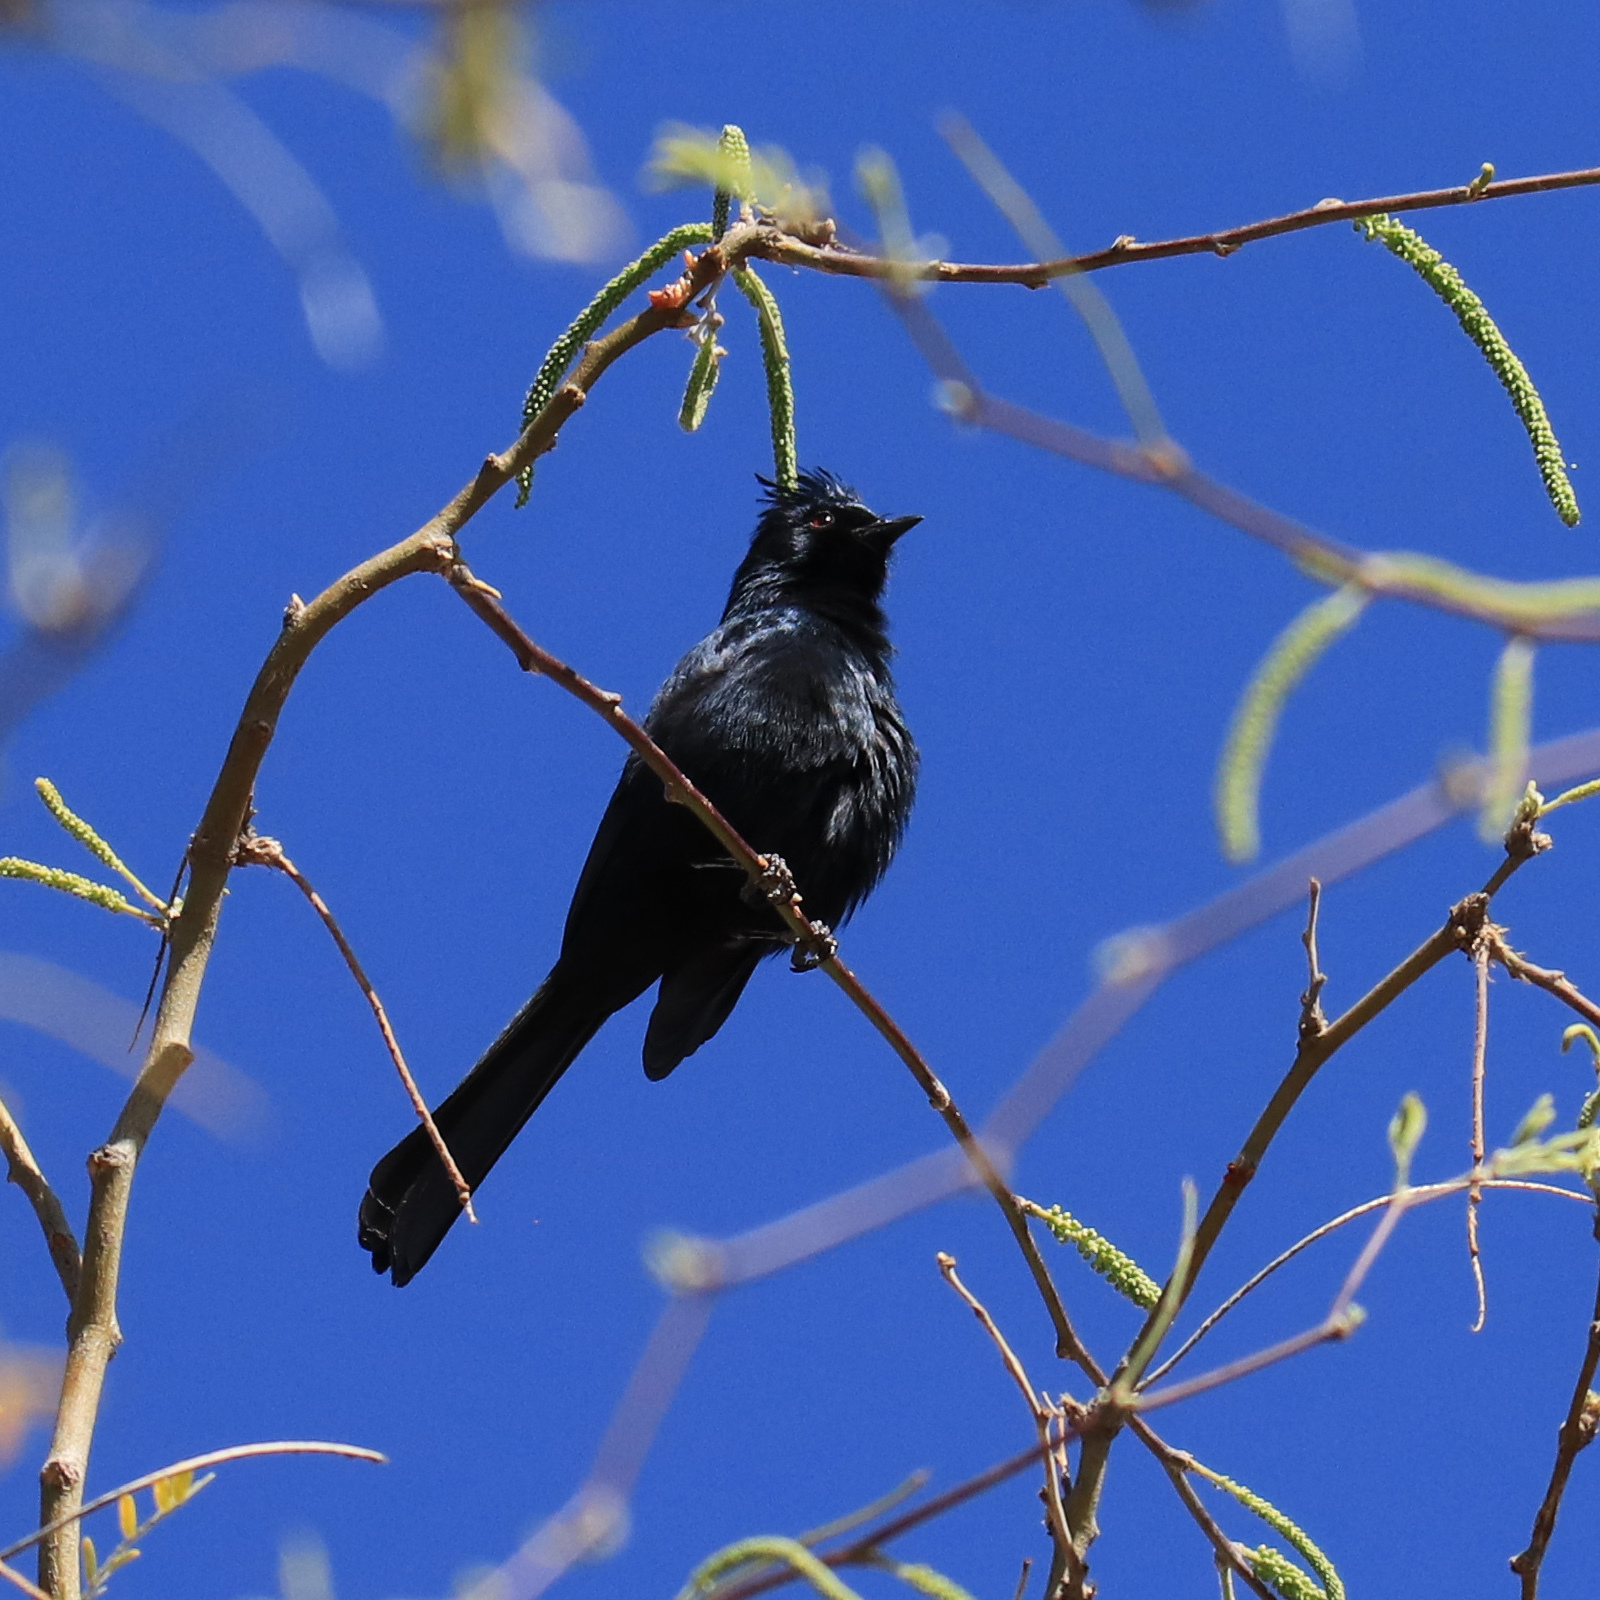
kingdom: Animalia
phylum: Chordata
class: Aves
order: Passeriformes
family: Ptilogonatidae
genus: Phainopepla
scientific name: Phainopepla nitens
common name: Phainopepla
